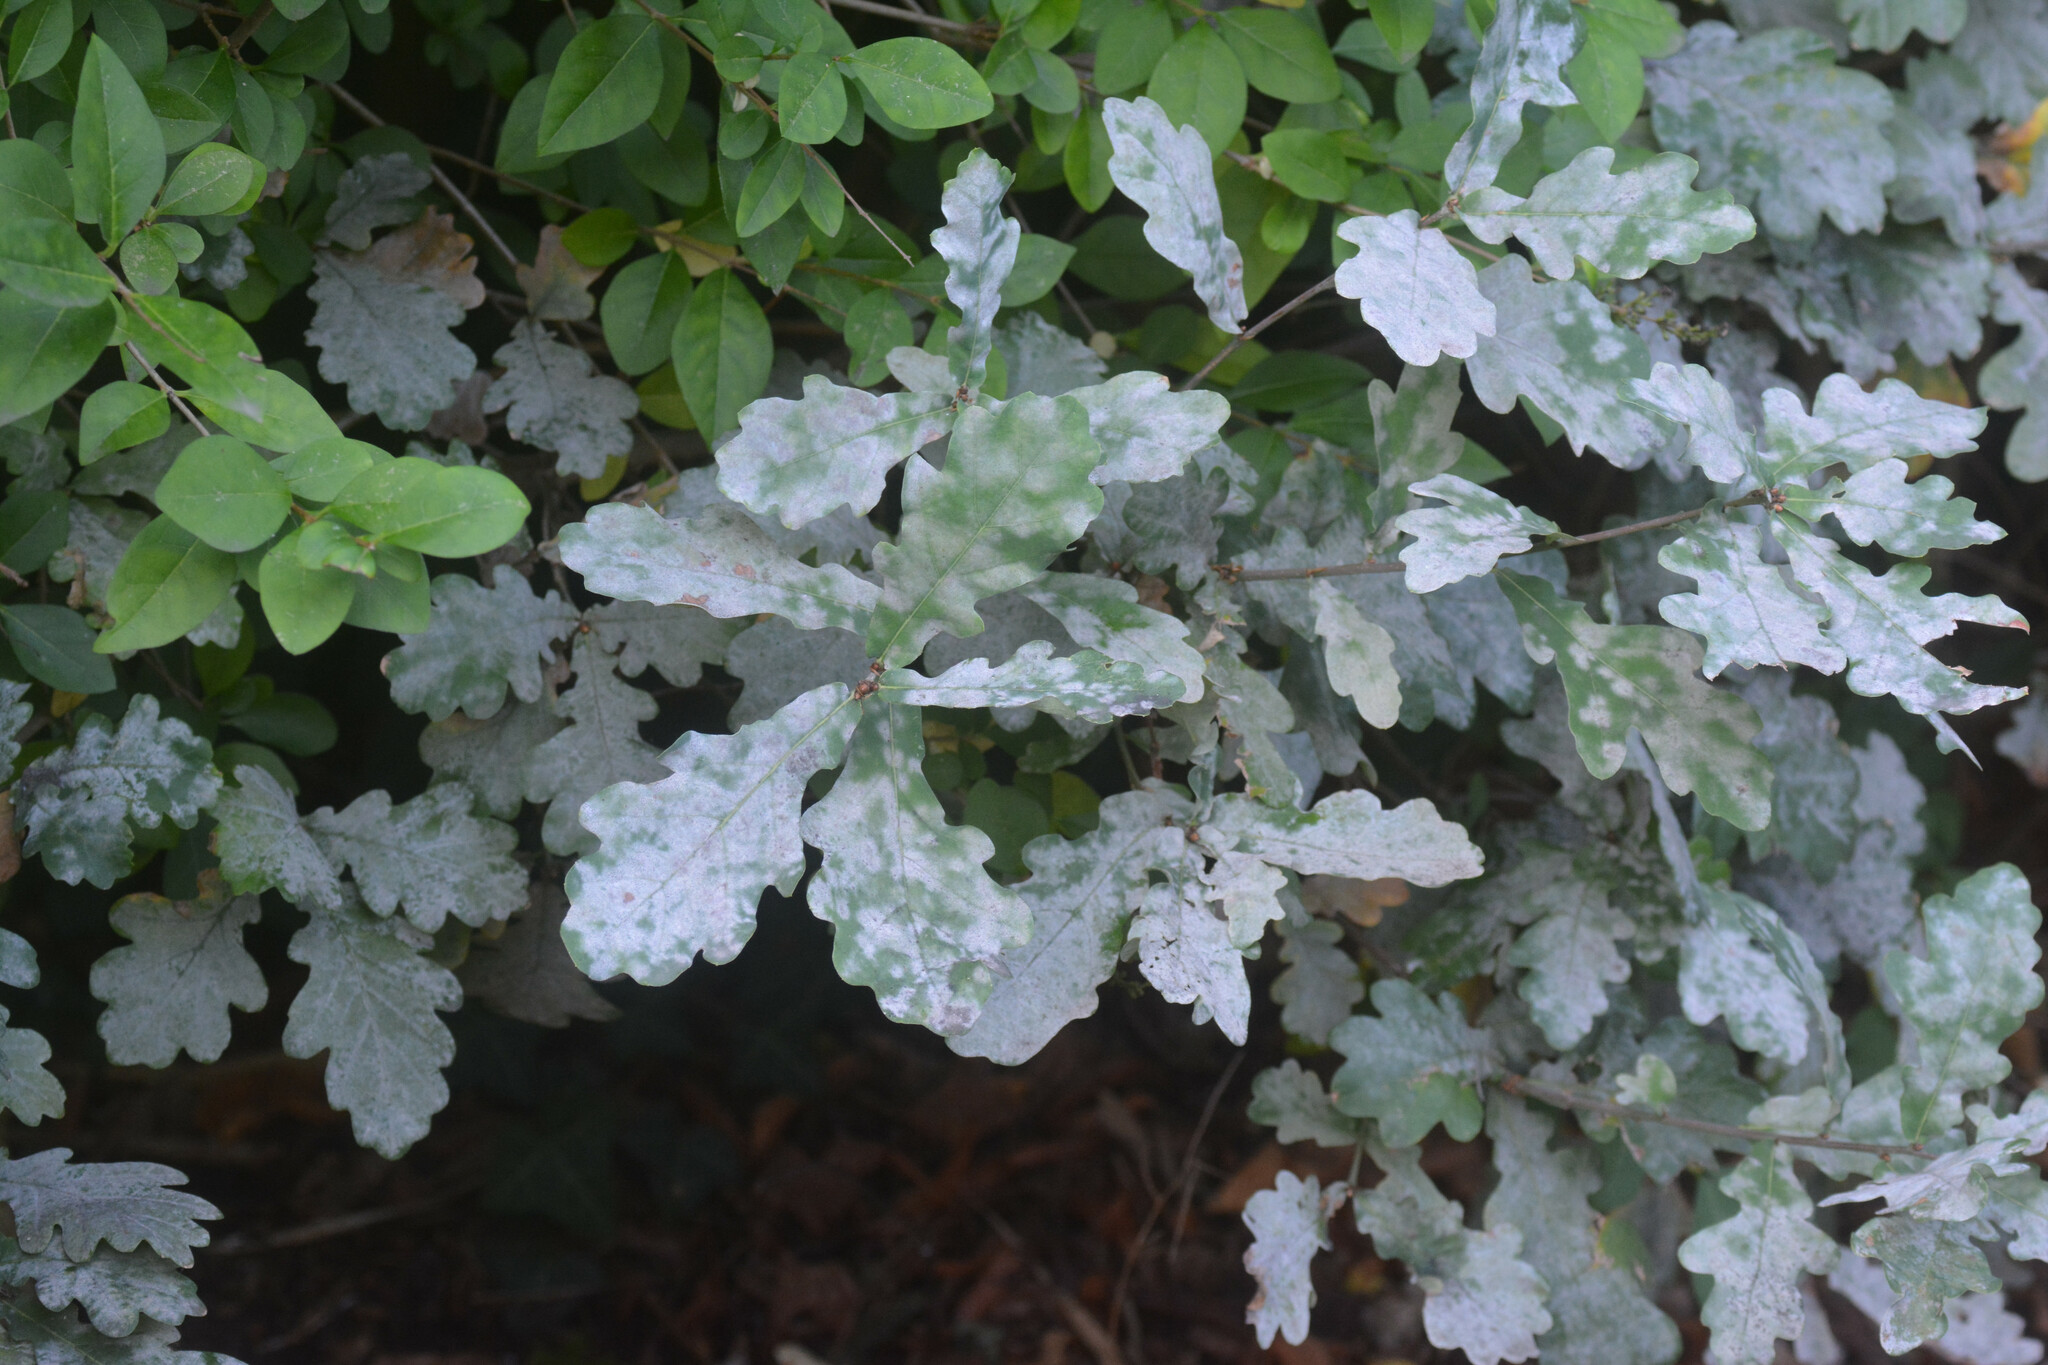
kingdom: Fungi
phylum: Ascomycota
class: Leotiomycetes
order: Helotiales
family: Erysiphaceae
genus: Erysiphe
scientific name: Erysiphe alphitoides
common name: Oak mildew
